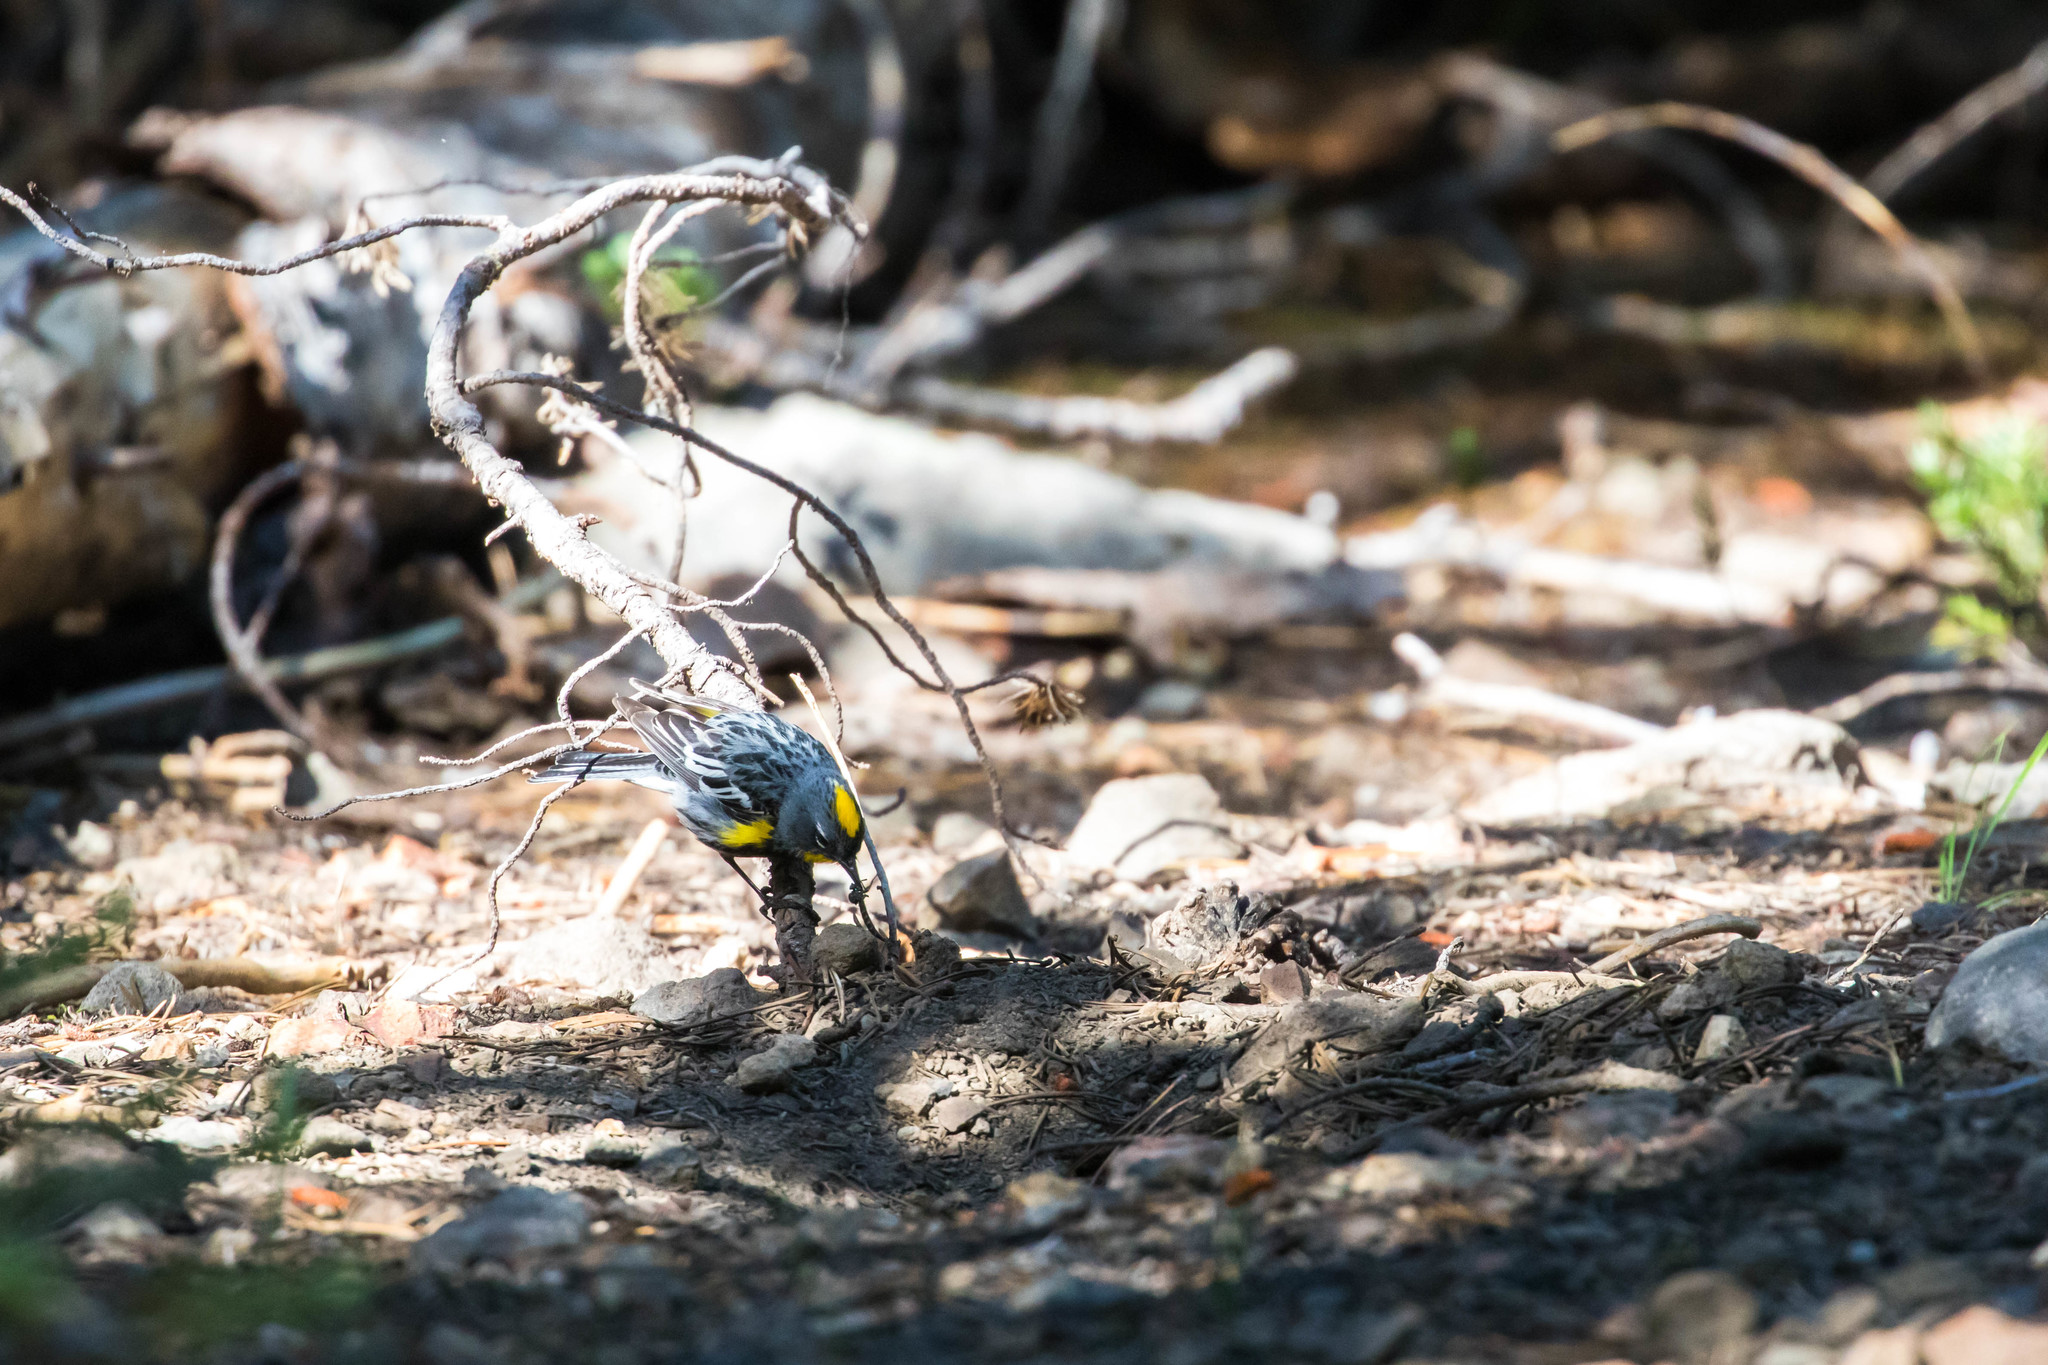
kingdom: Animalia
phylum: Chordata
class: Aves
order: Passeriformes
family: Parulidae
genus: Setophaga
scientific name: Setophaga auduboni
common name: Audubon's warbler
